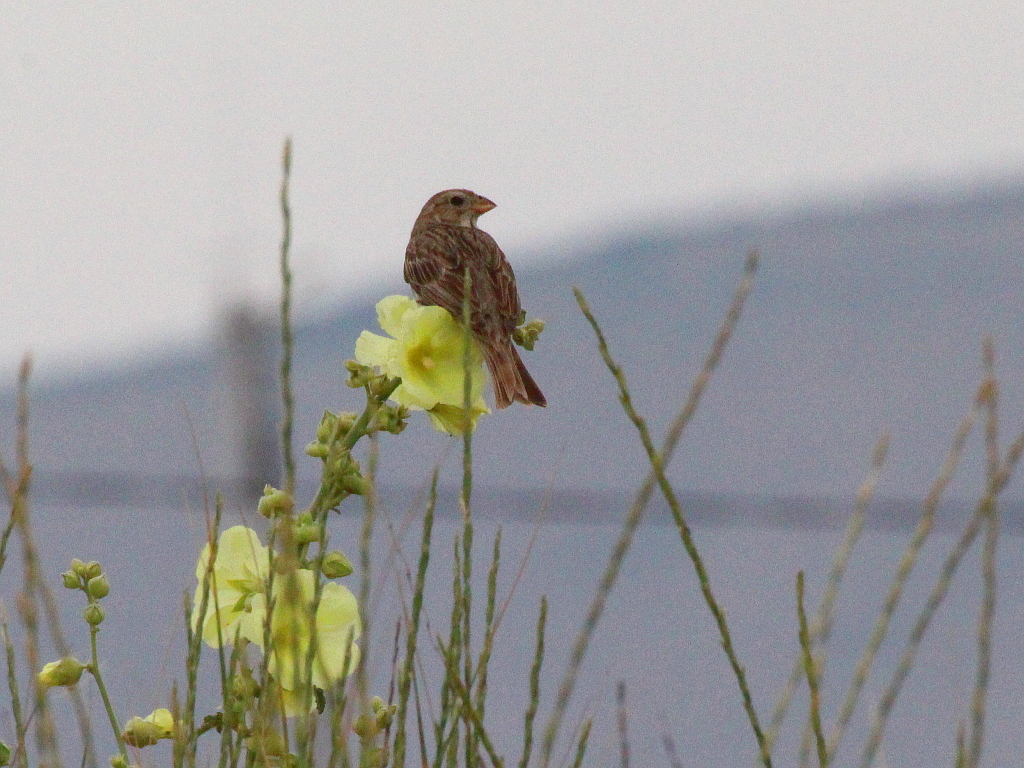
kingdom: Animalia
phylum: Chordata
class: Aves
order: Passeriformes
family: Emberizidae
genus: Emberiza
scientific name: Emberiza calandra
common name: Corn bunting
